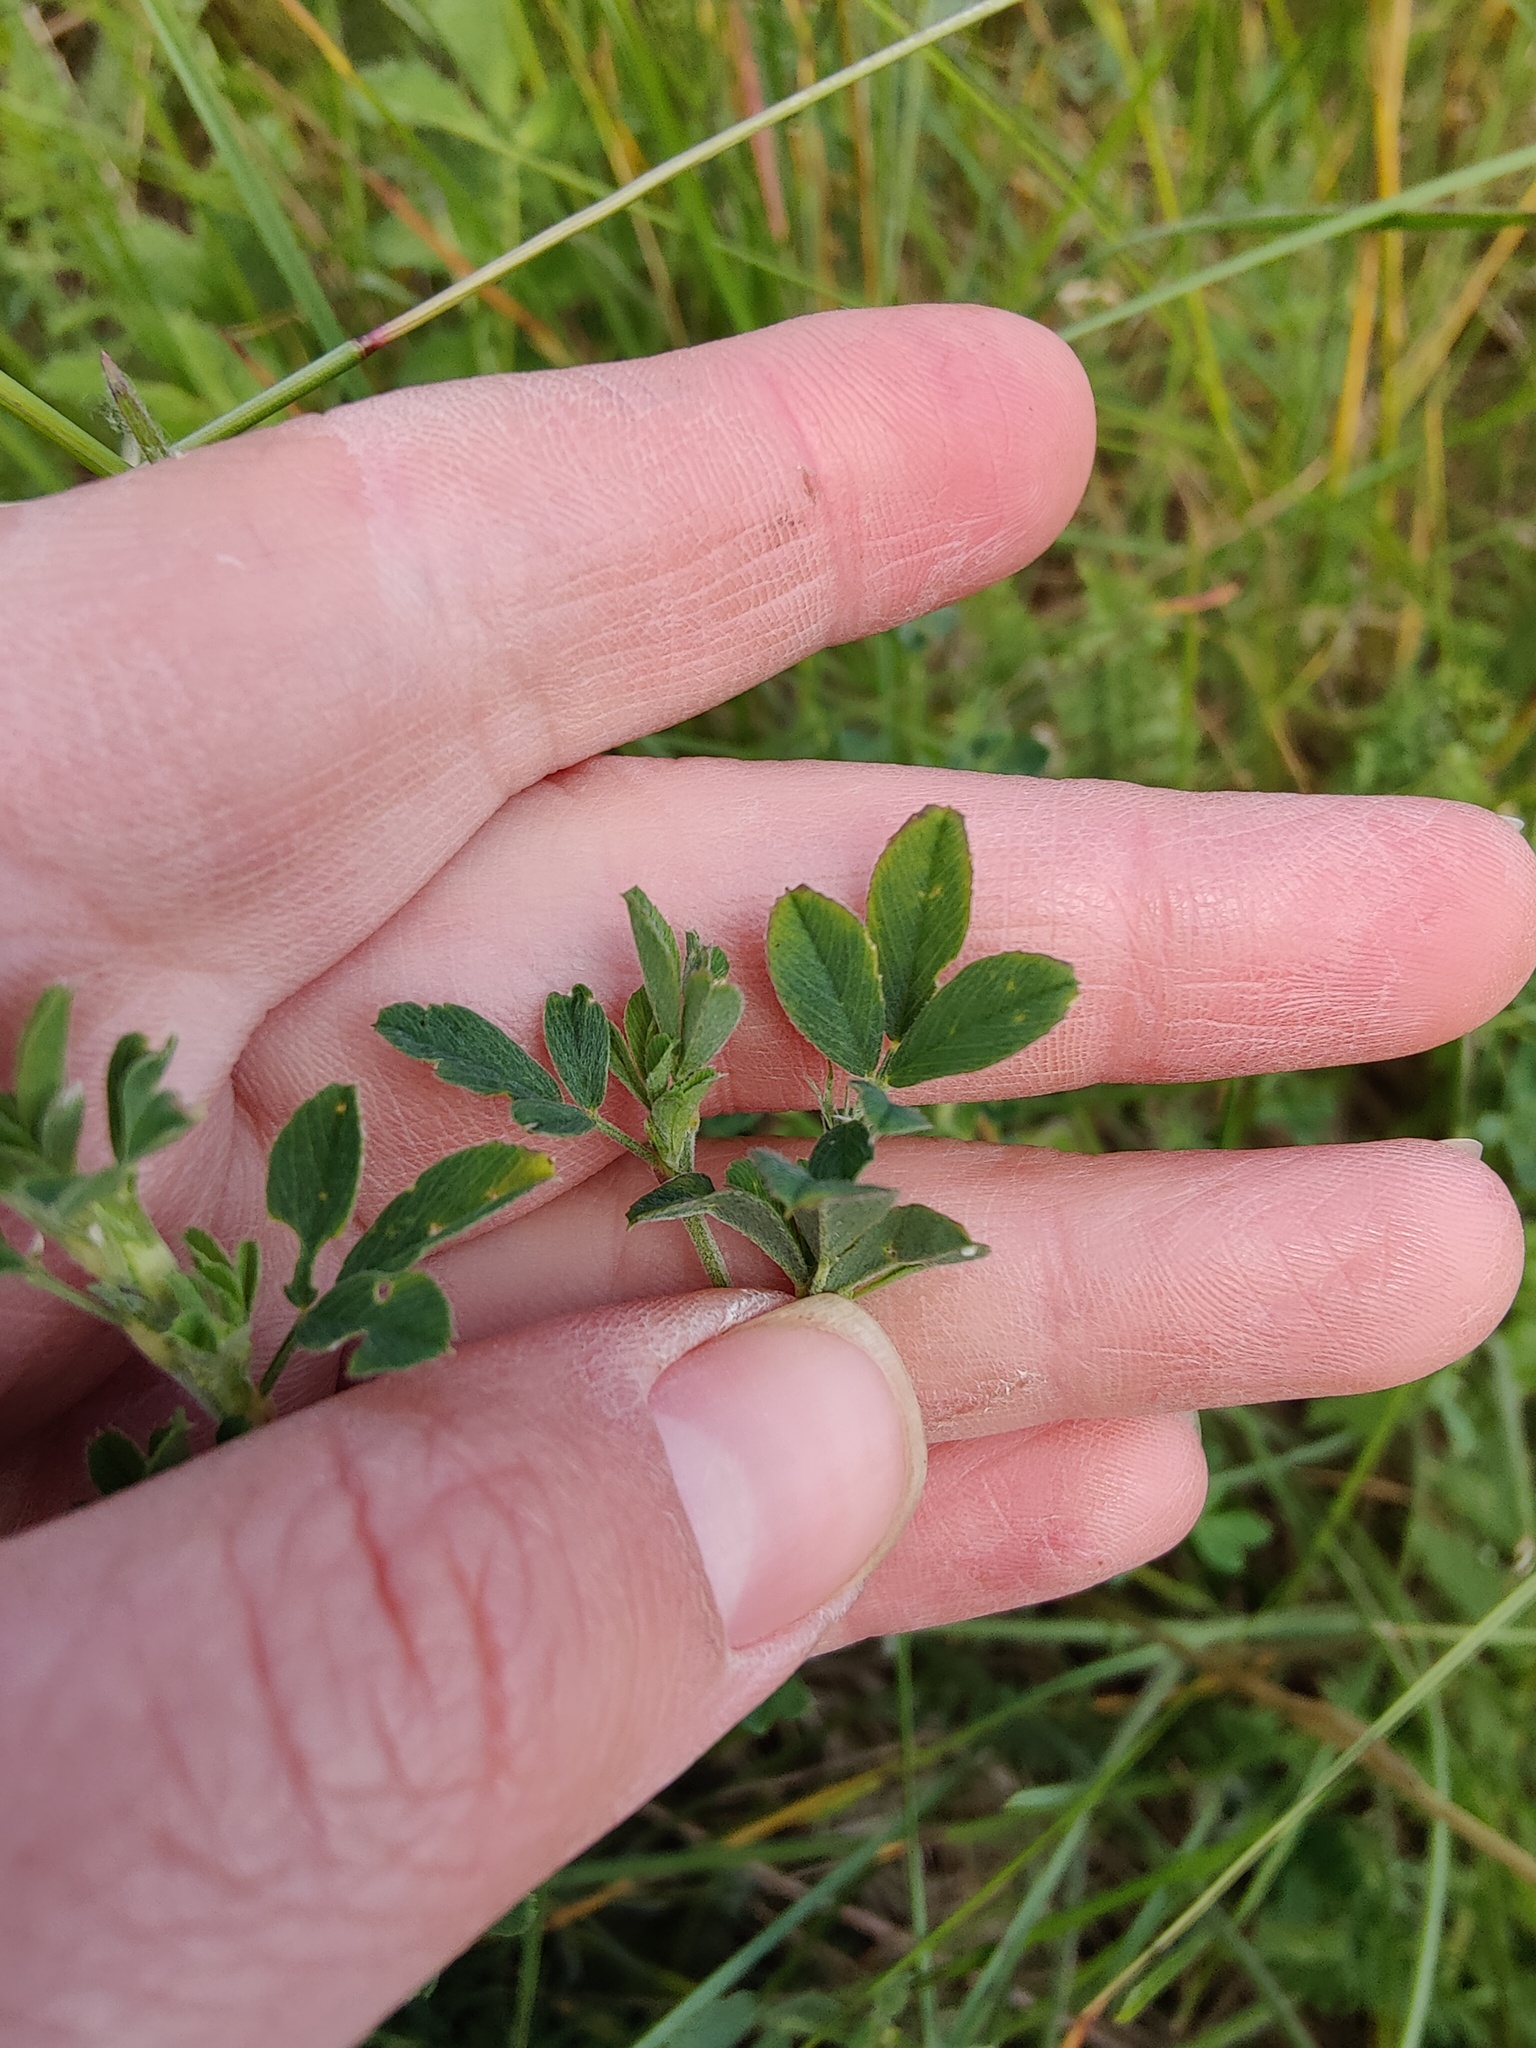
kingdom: Plantae
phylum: Tracheophyta
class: Magnoliopsida
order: Fabales
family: Fabaceae
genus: Medicago
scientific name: Medicago falcata
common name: Sickle medick
